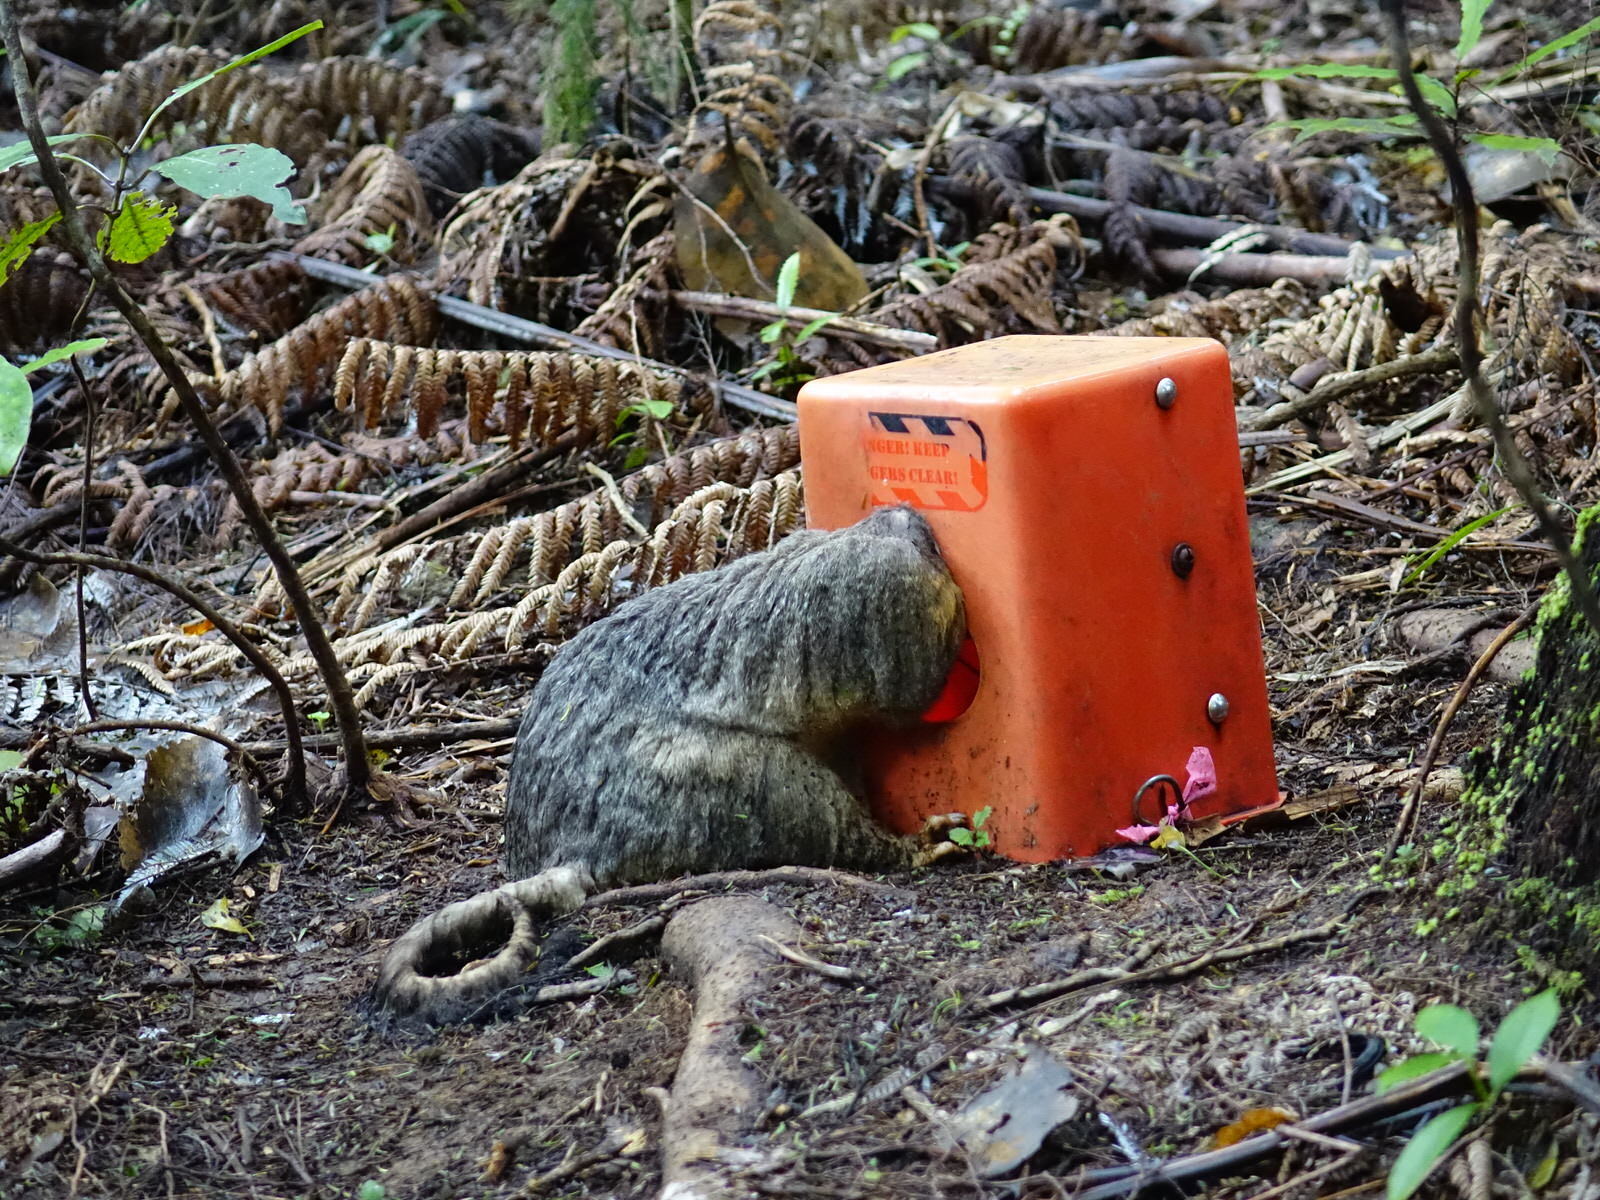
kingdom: Animalia
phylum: Chordata
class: Mammalia
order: Diprotodontia
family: Phalangeridae
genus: Trichosurus
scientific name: Trichosurus vulpecula
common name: Common brushtail
